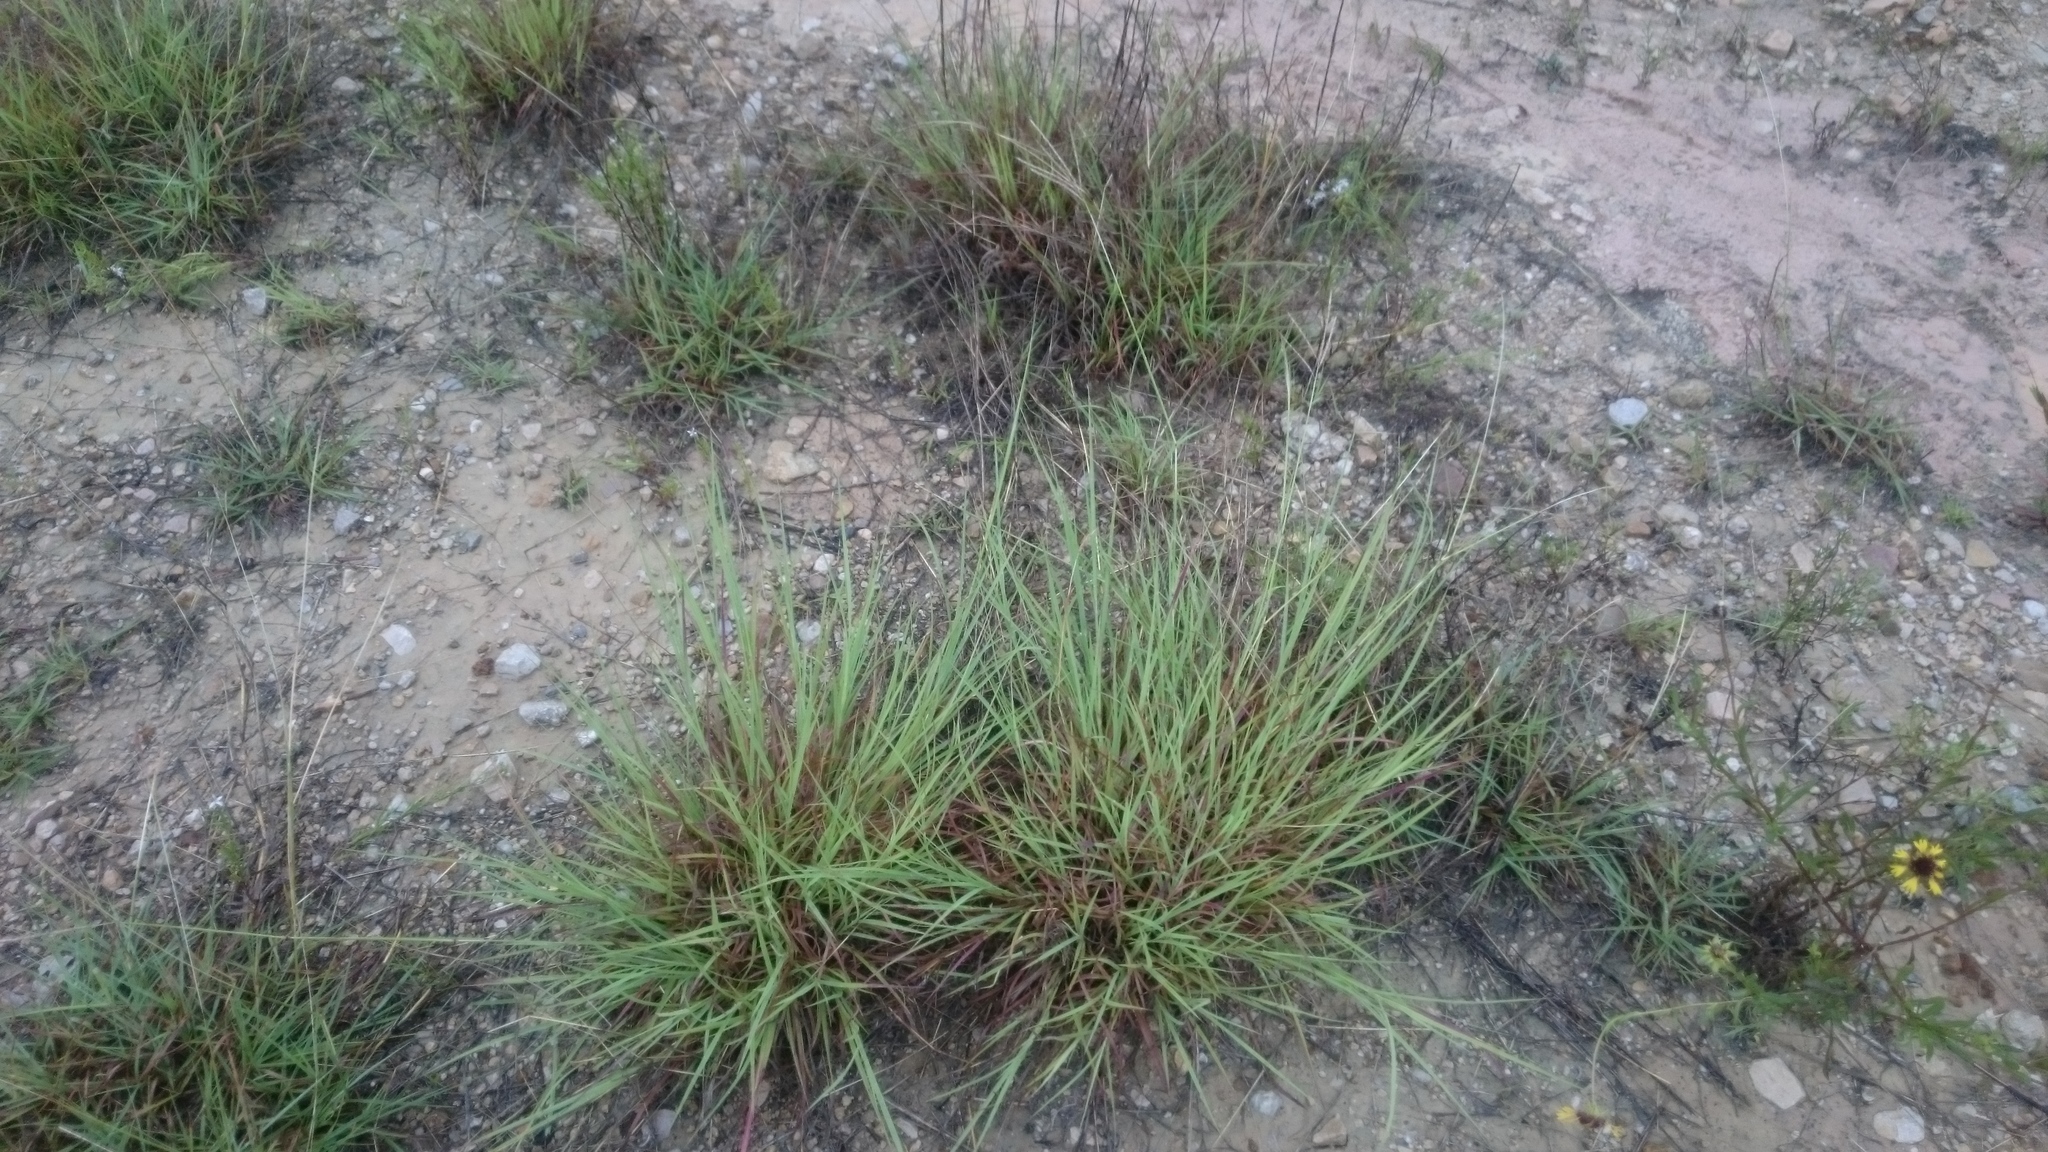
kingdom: Plantae
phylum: Tracheophyta
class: Liliopsida
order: Poales
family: Poaceae
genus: Bothriochloa
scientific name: Bothriochloa ischaemum
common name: Yellow bluestem
